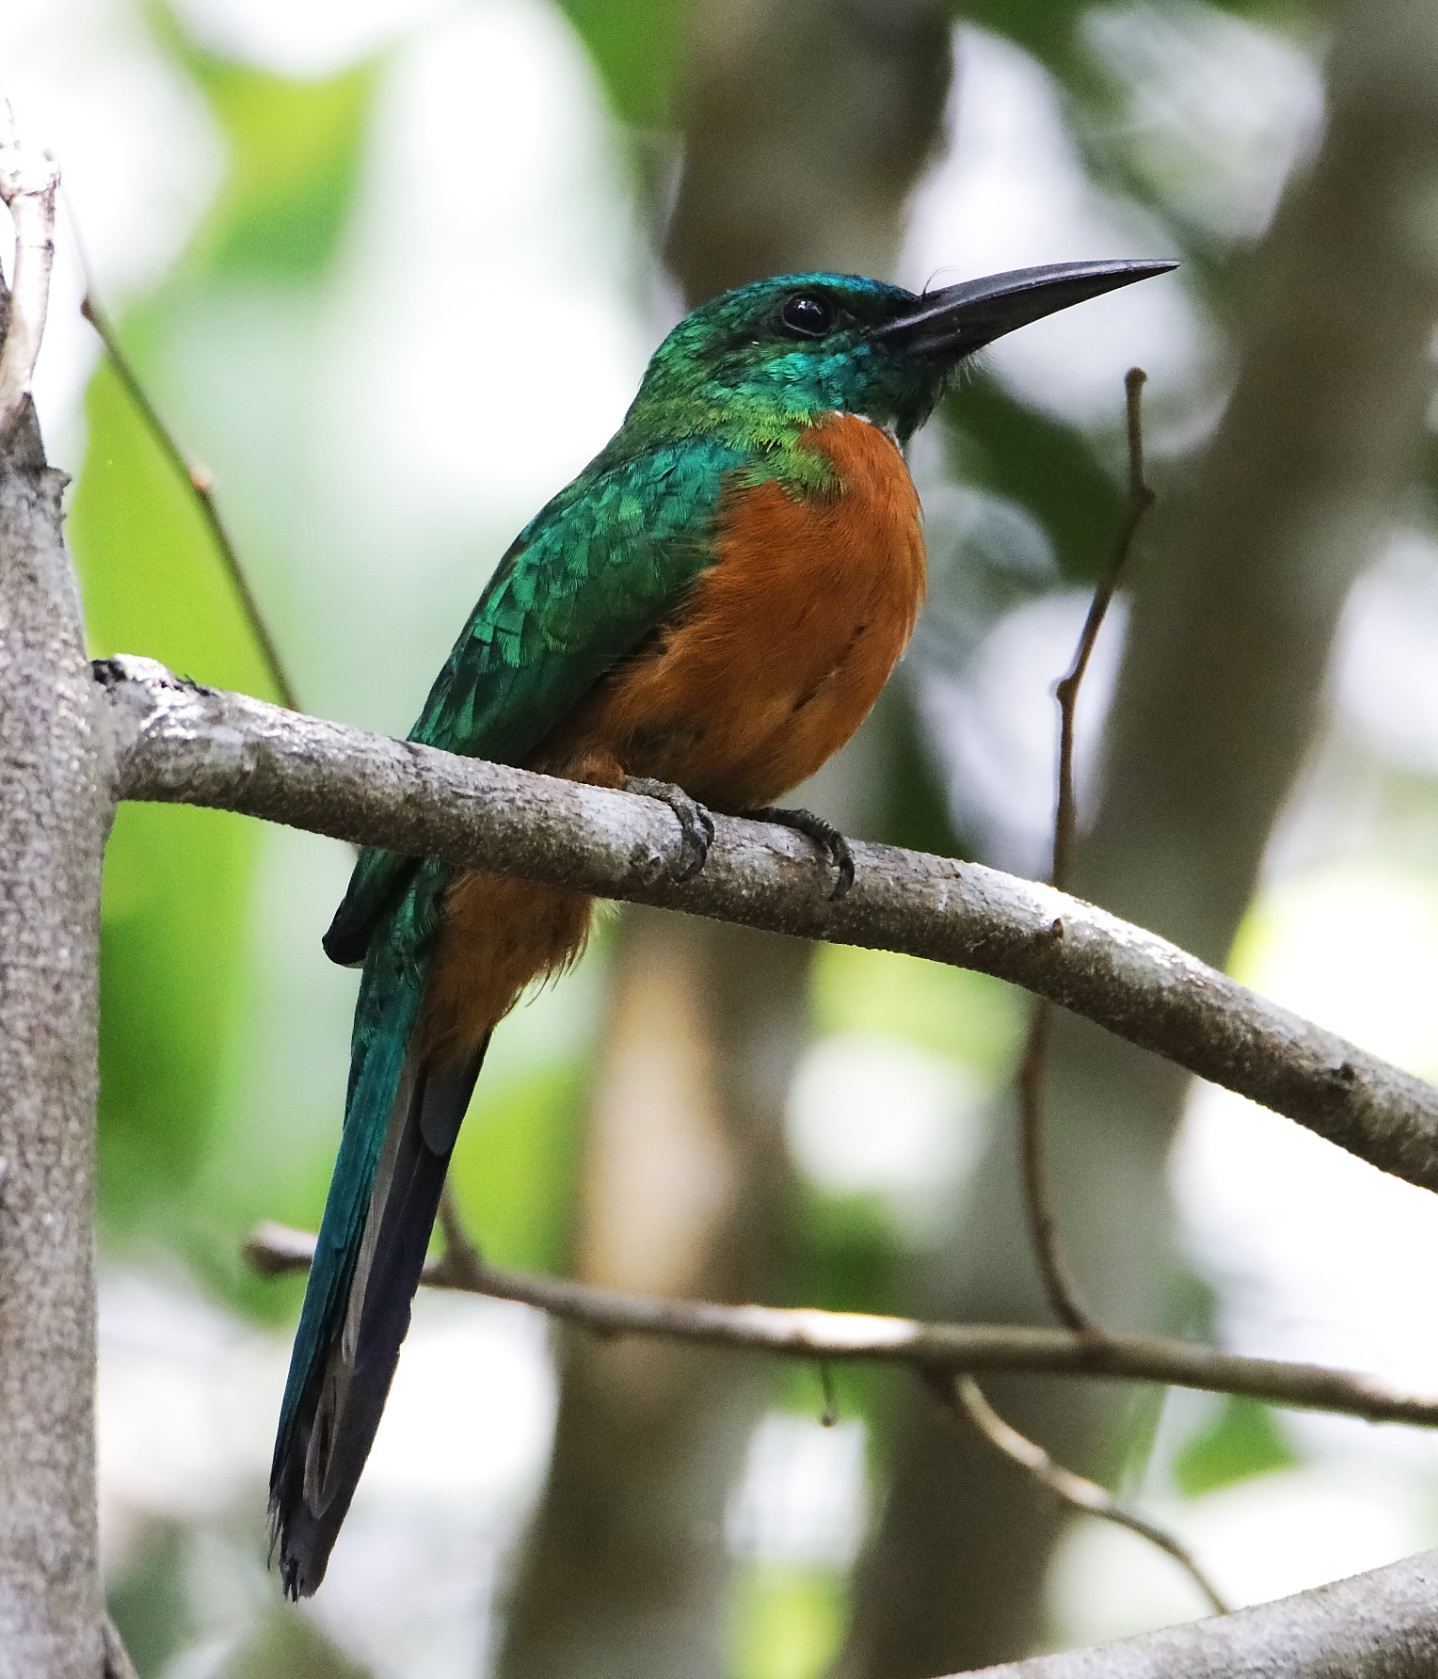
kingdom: Animalia
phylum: Chordata
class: Aves
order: Piciformes
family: Galbulidae
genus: Jacamerops
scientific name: Jacamerops aureus
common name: Great jacamar
